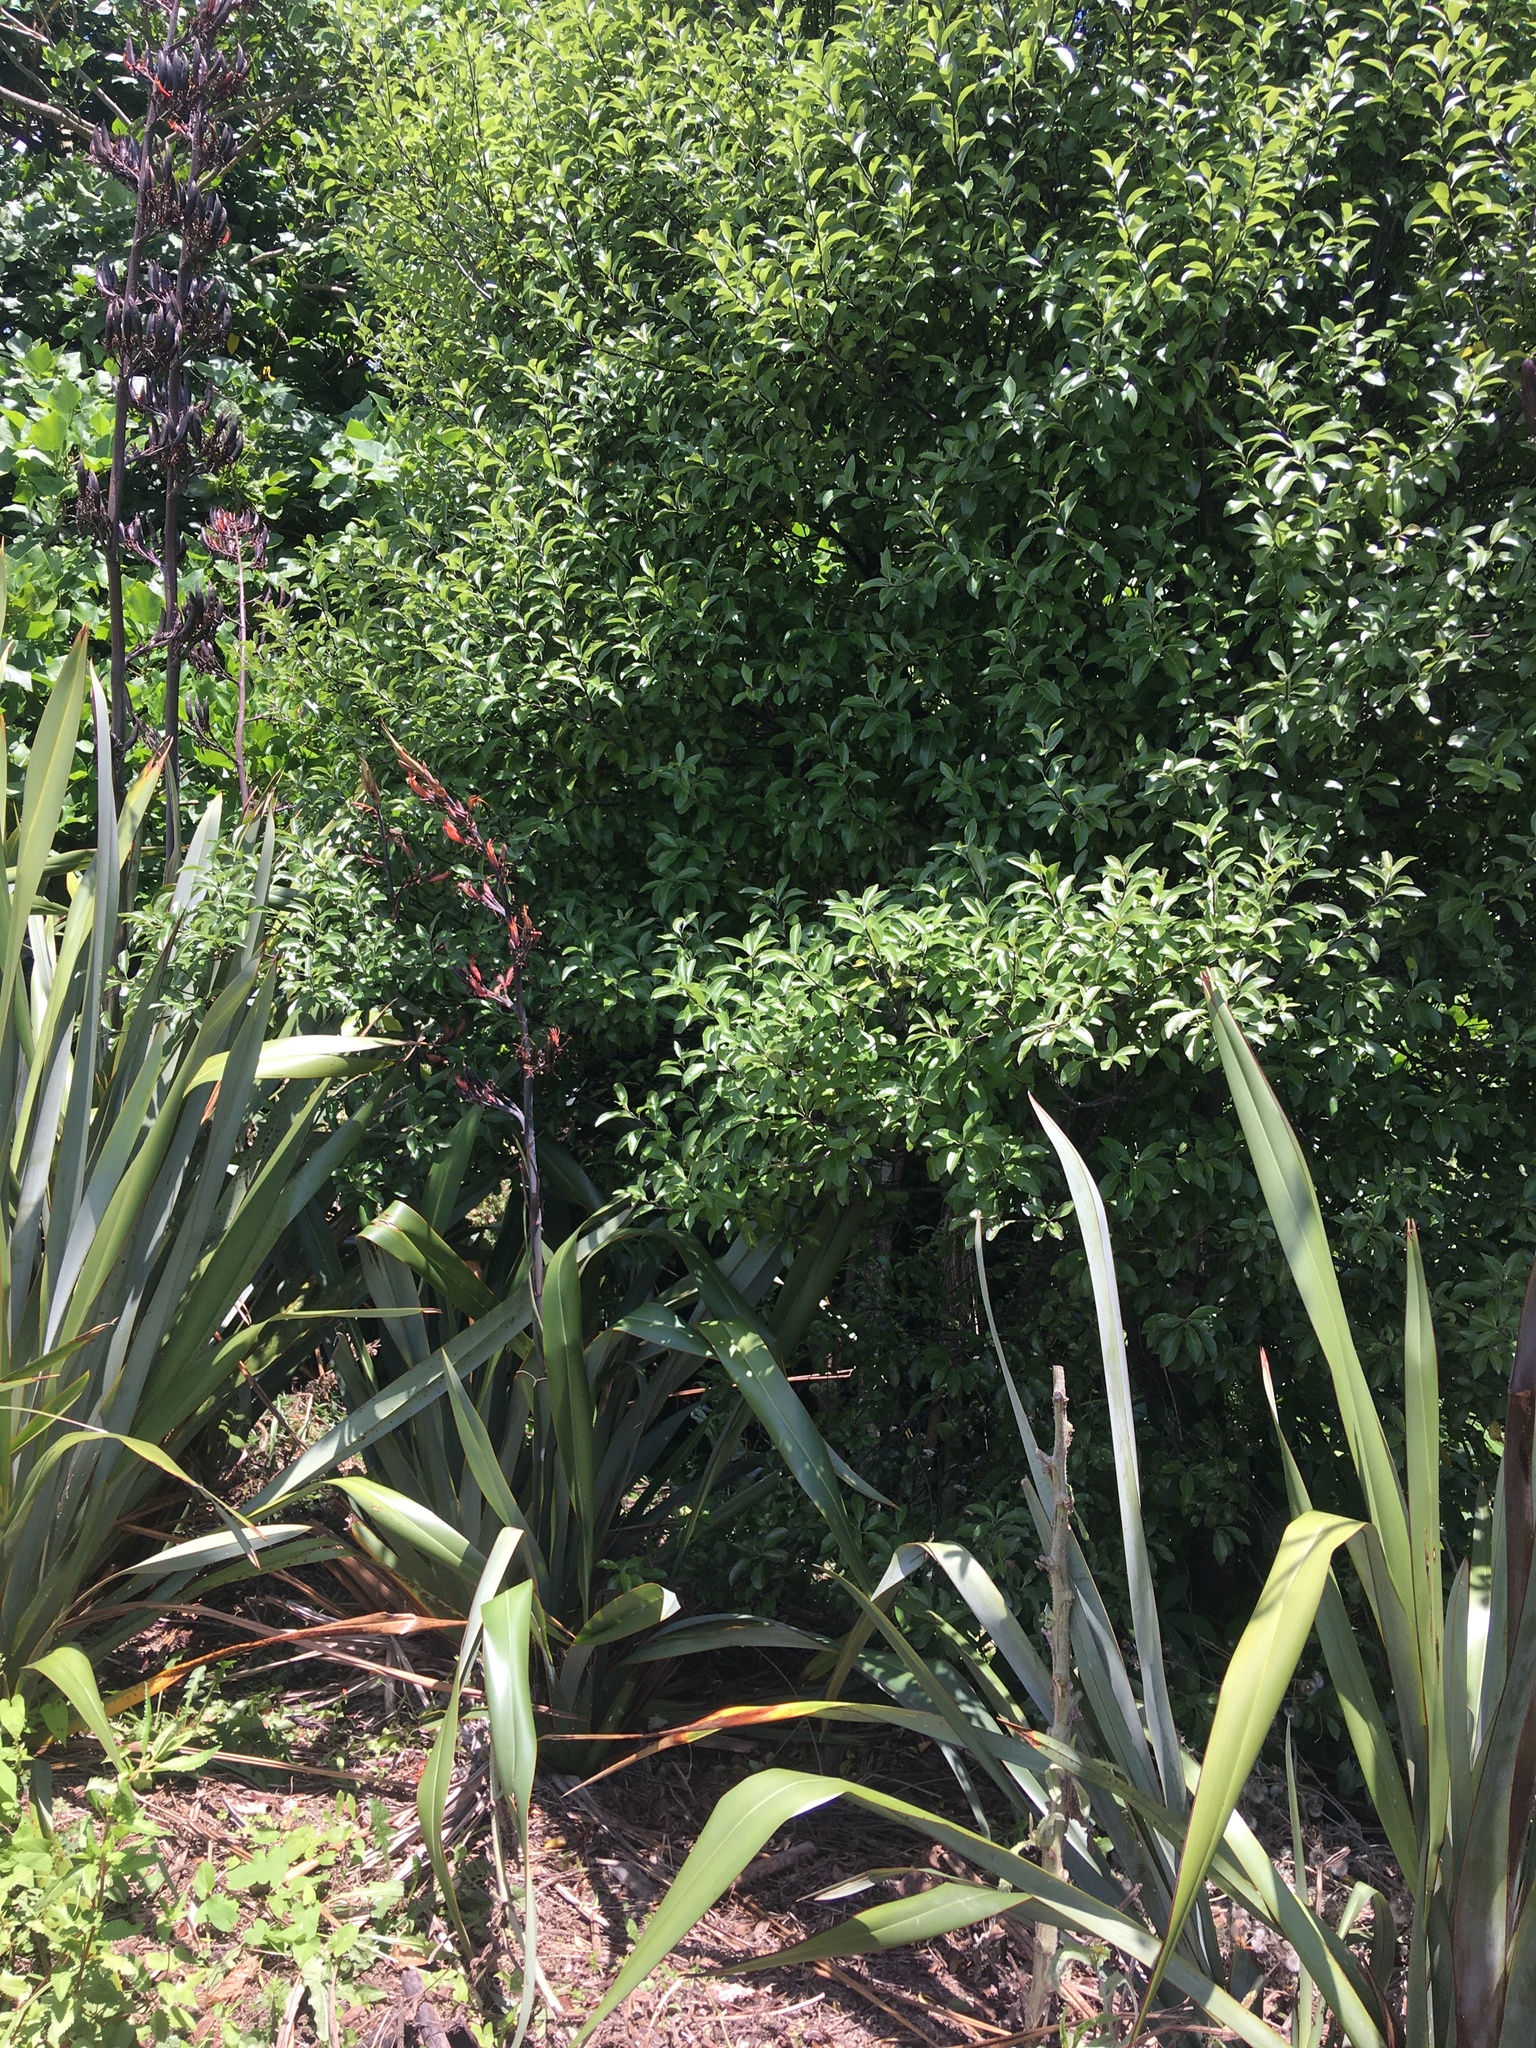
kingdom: Plantae
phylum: Tracheophyta
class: Magnoliopsida
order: Apiales
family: Pittosporaceae
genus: Pittosporum
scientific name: Pittosporum tenuifolium
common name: Kohuhu
